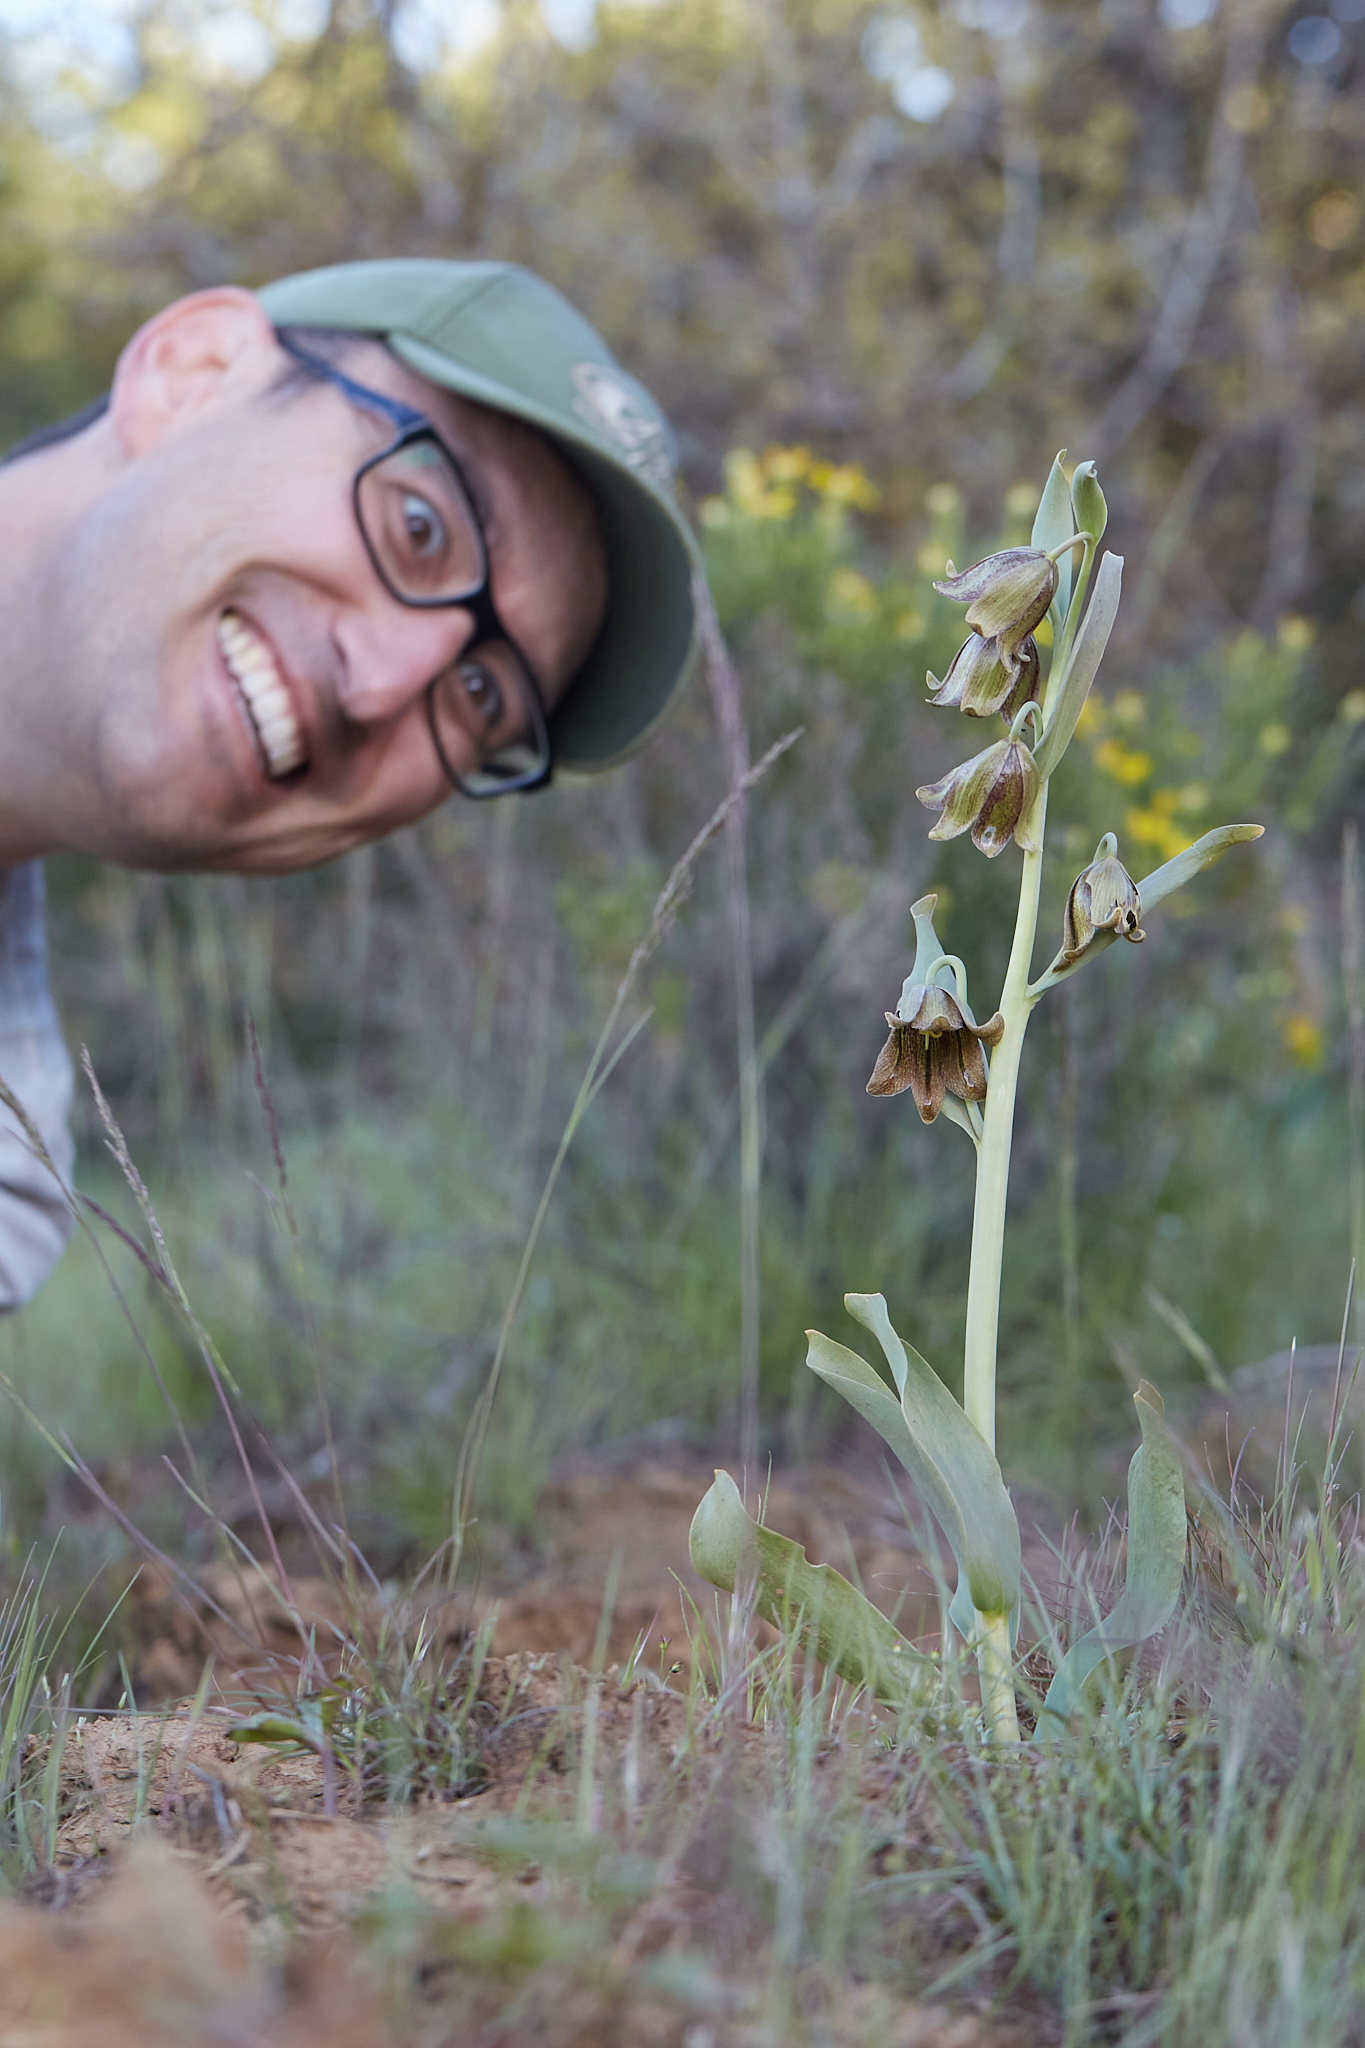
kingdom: Plantae
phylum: Tracheophyta
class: Liliopsida
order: Liliales
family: Liliaceae
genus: Fritillaria
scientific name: Fritillaria agrestis
